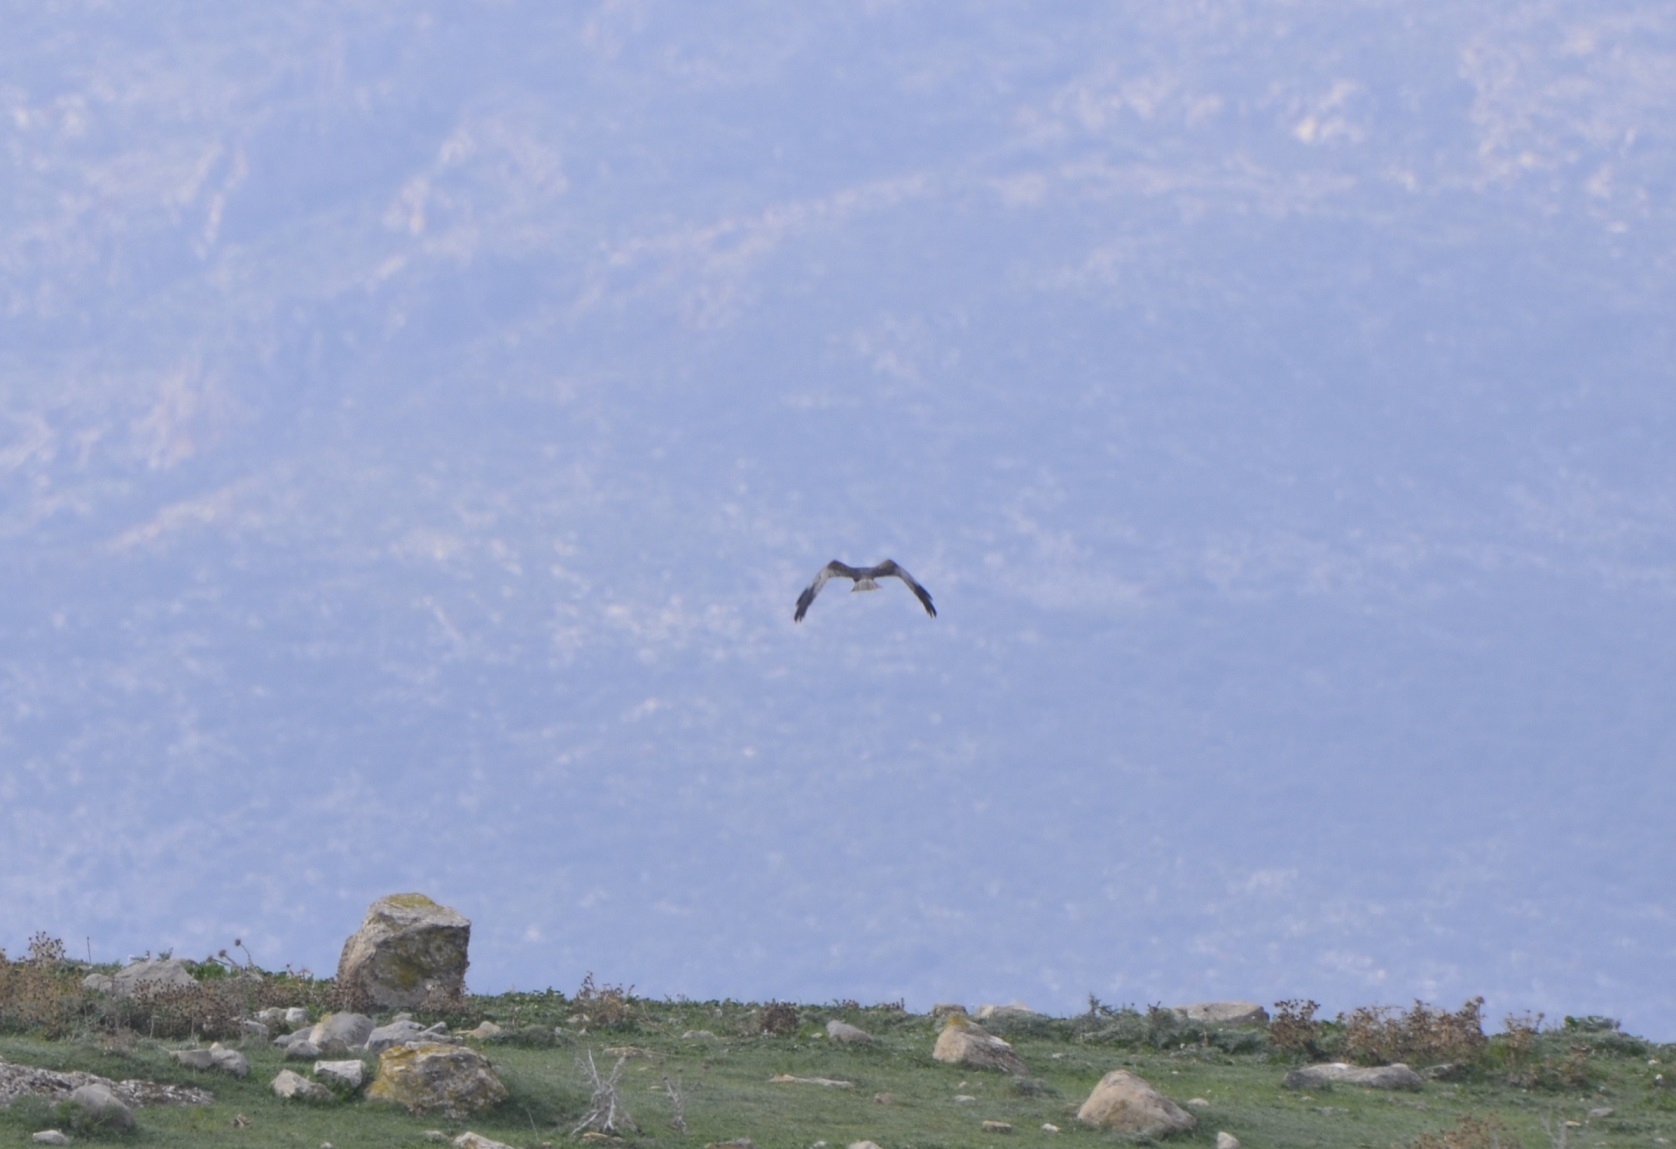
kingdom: Animalia
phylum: Chordata
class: Aves
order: Accipitriformes
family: Accipitridae
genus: Circus
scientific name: Circus aeruginosus
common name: Western marsh harrier
